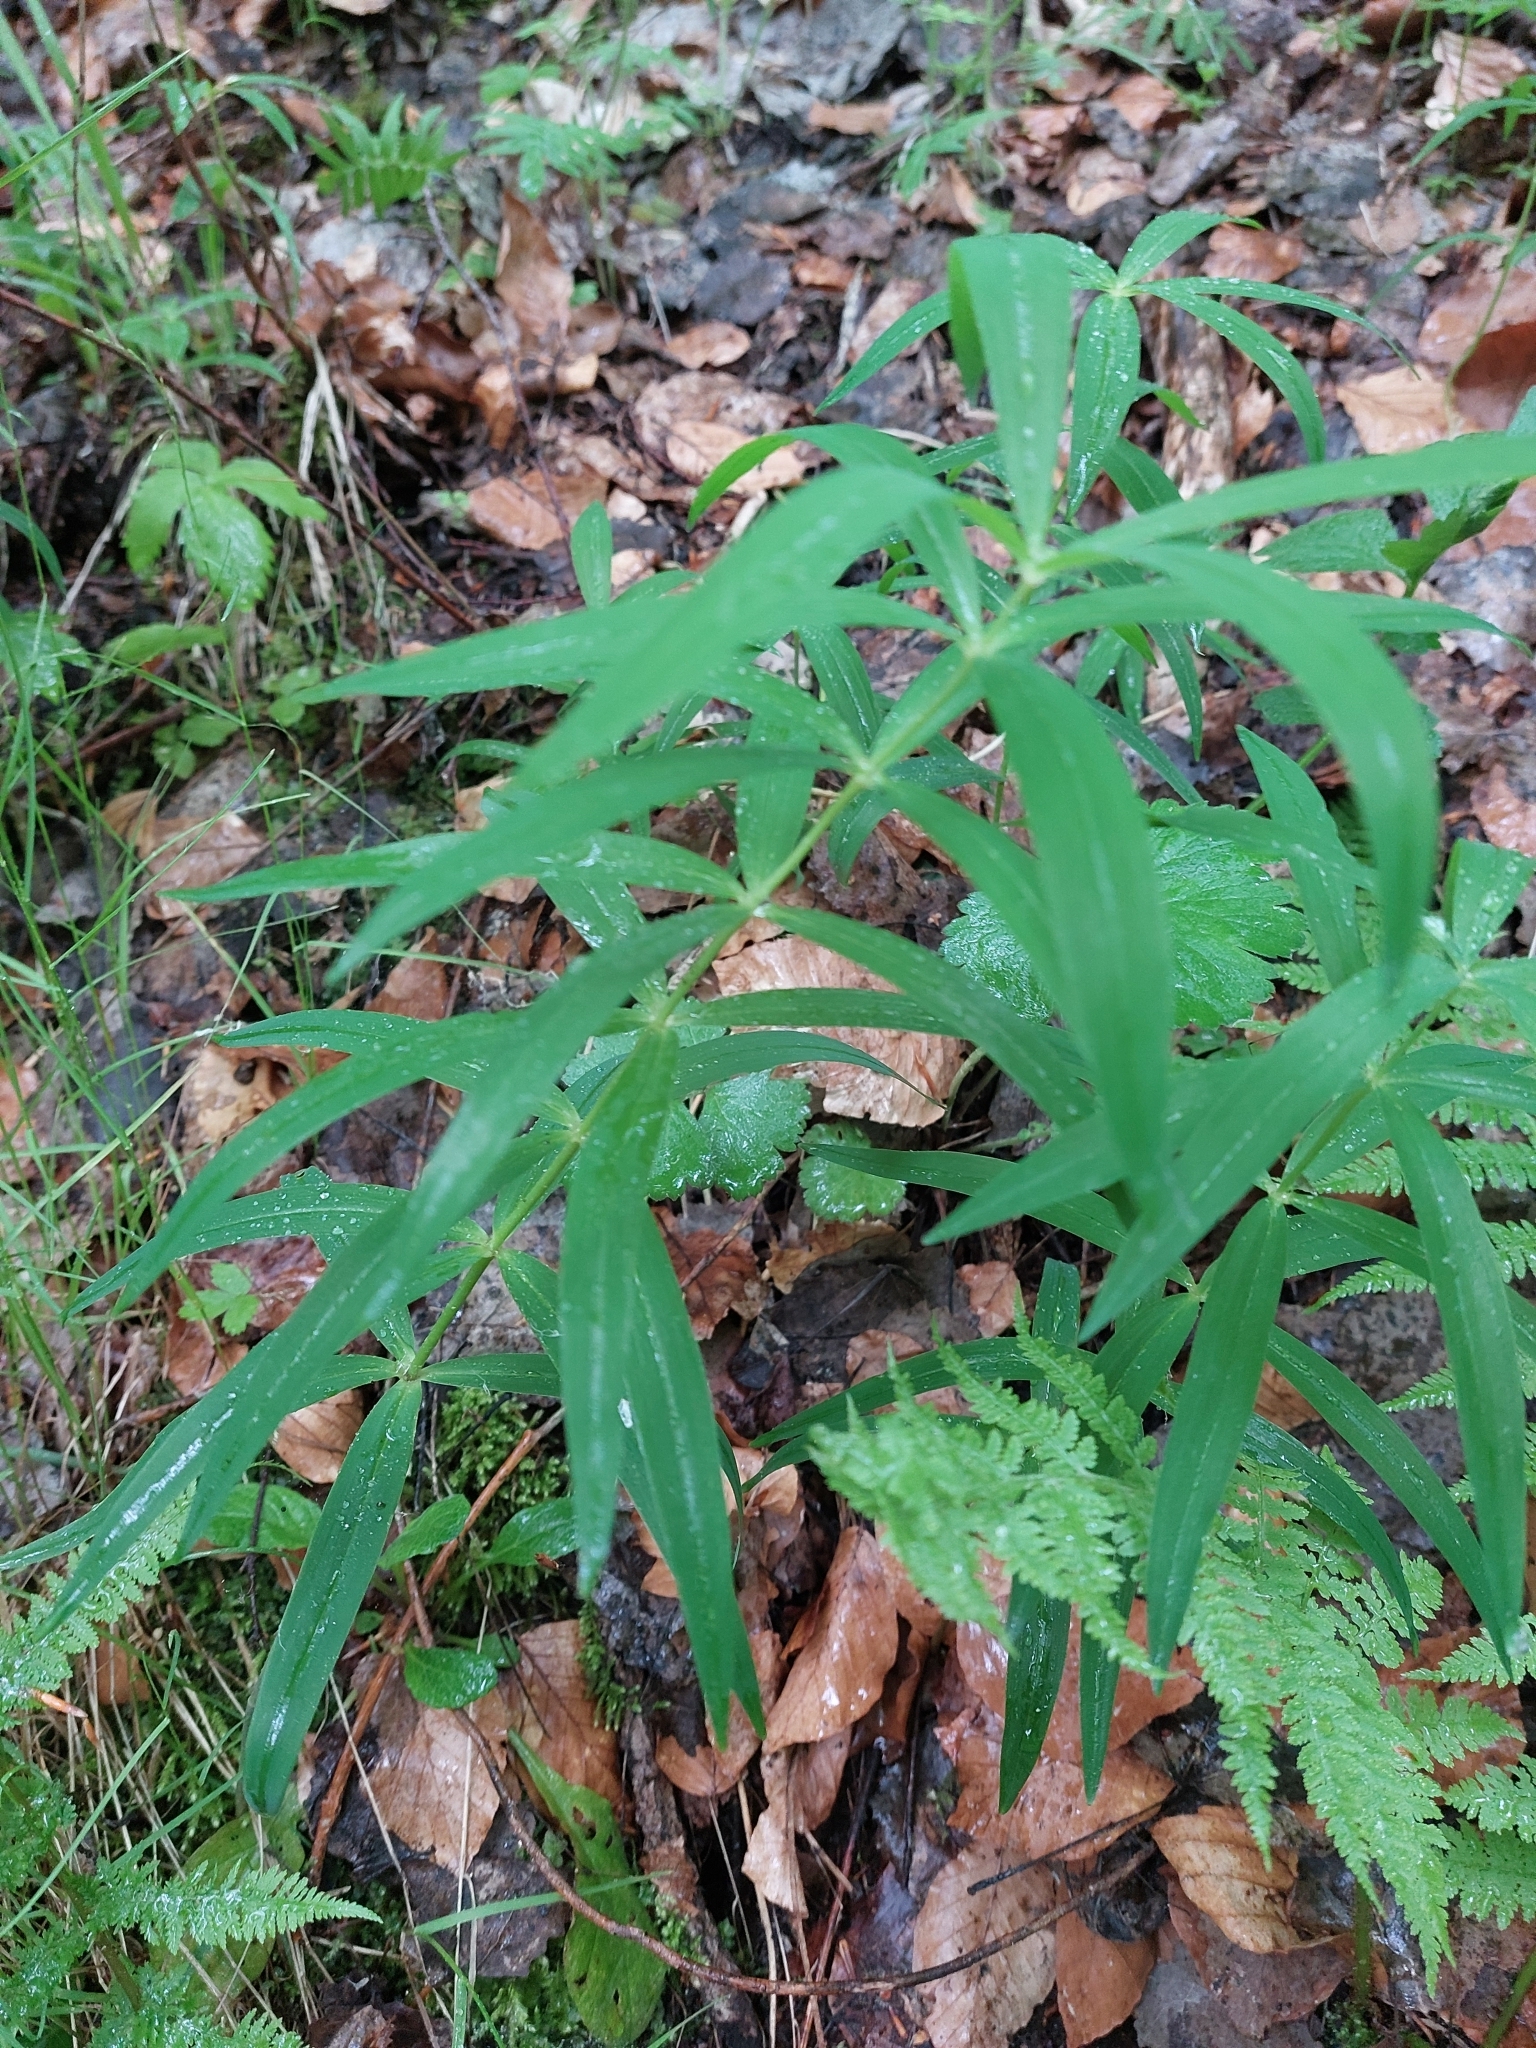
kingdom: Plantae
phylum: Tracheophyta
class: Liliopsida
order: Asparagales
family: Asparagaceae
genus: Polygonatum
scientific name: Polygonatum verticillatum
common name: Whorled solomon's-seal
